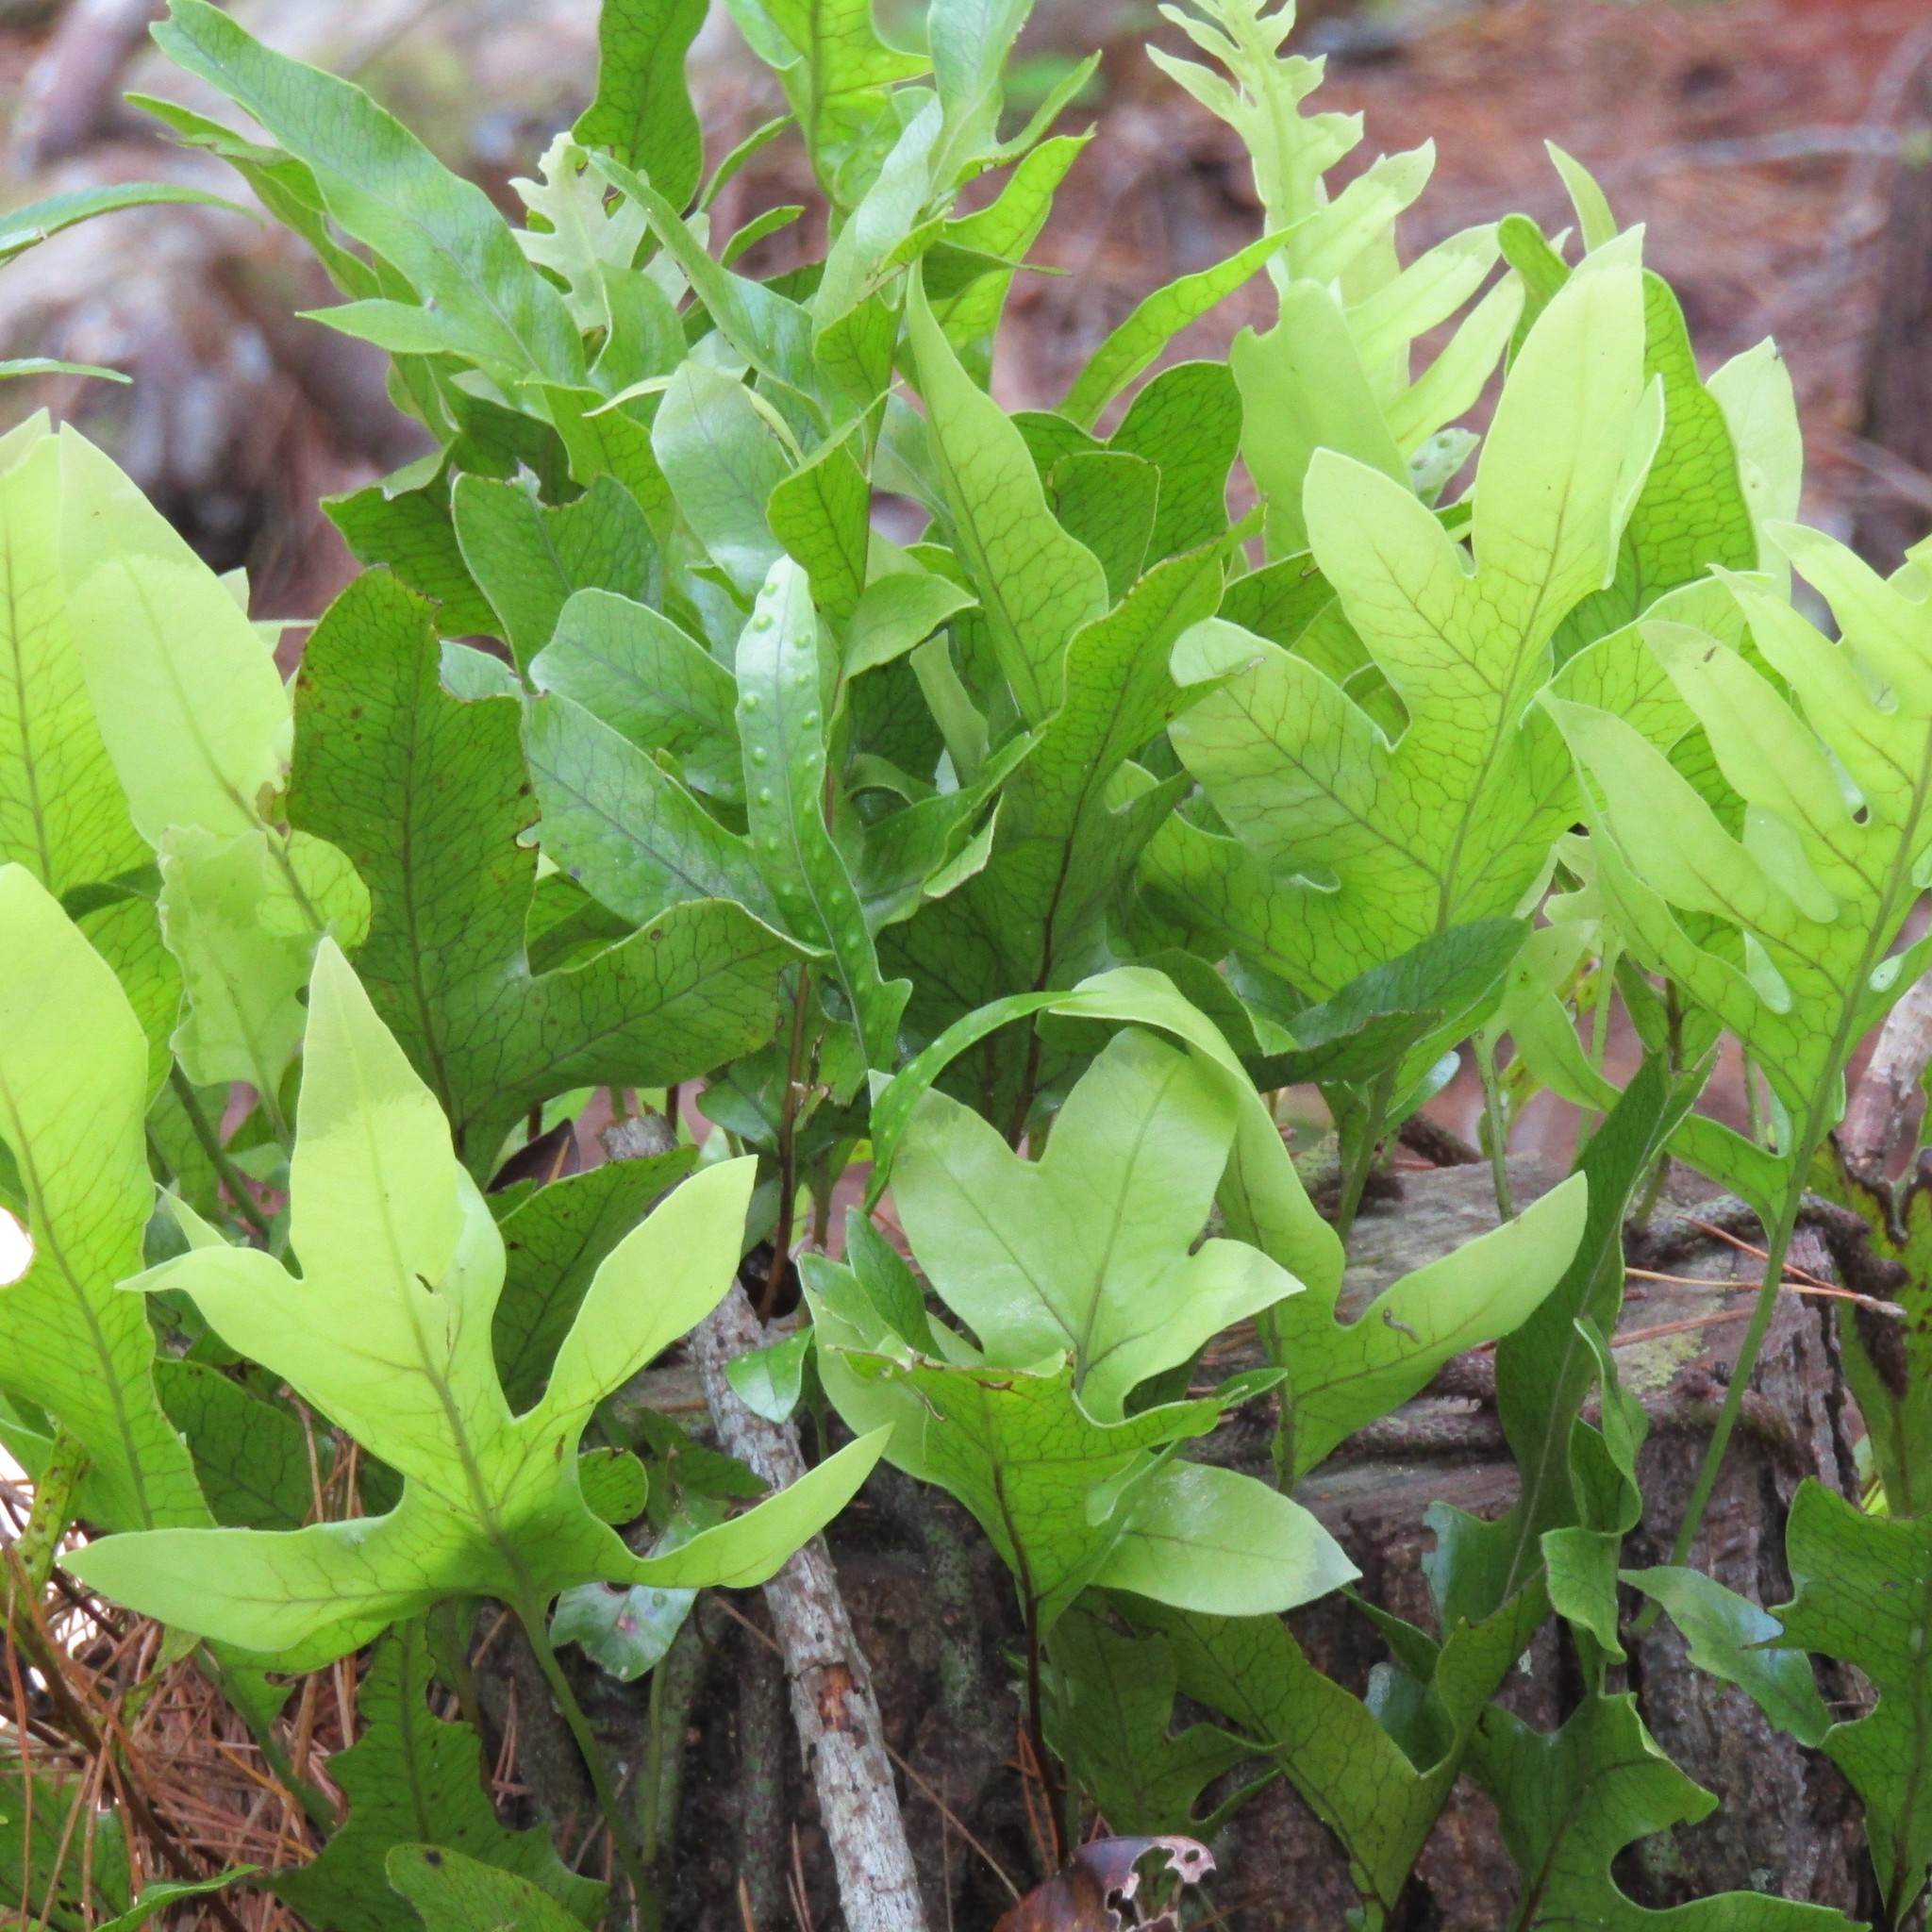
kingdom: Plantae
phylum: Tracheophyta
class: Polypodiopsida
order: Polypodiales
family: Polypodiaceae
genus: Lecanopteris
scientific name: Lecanopteris pustulata
